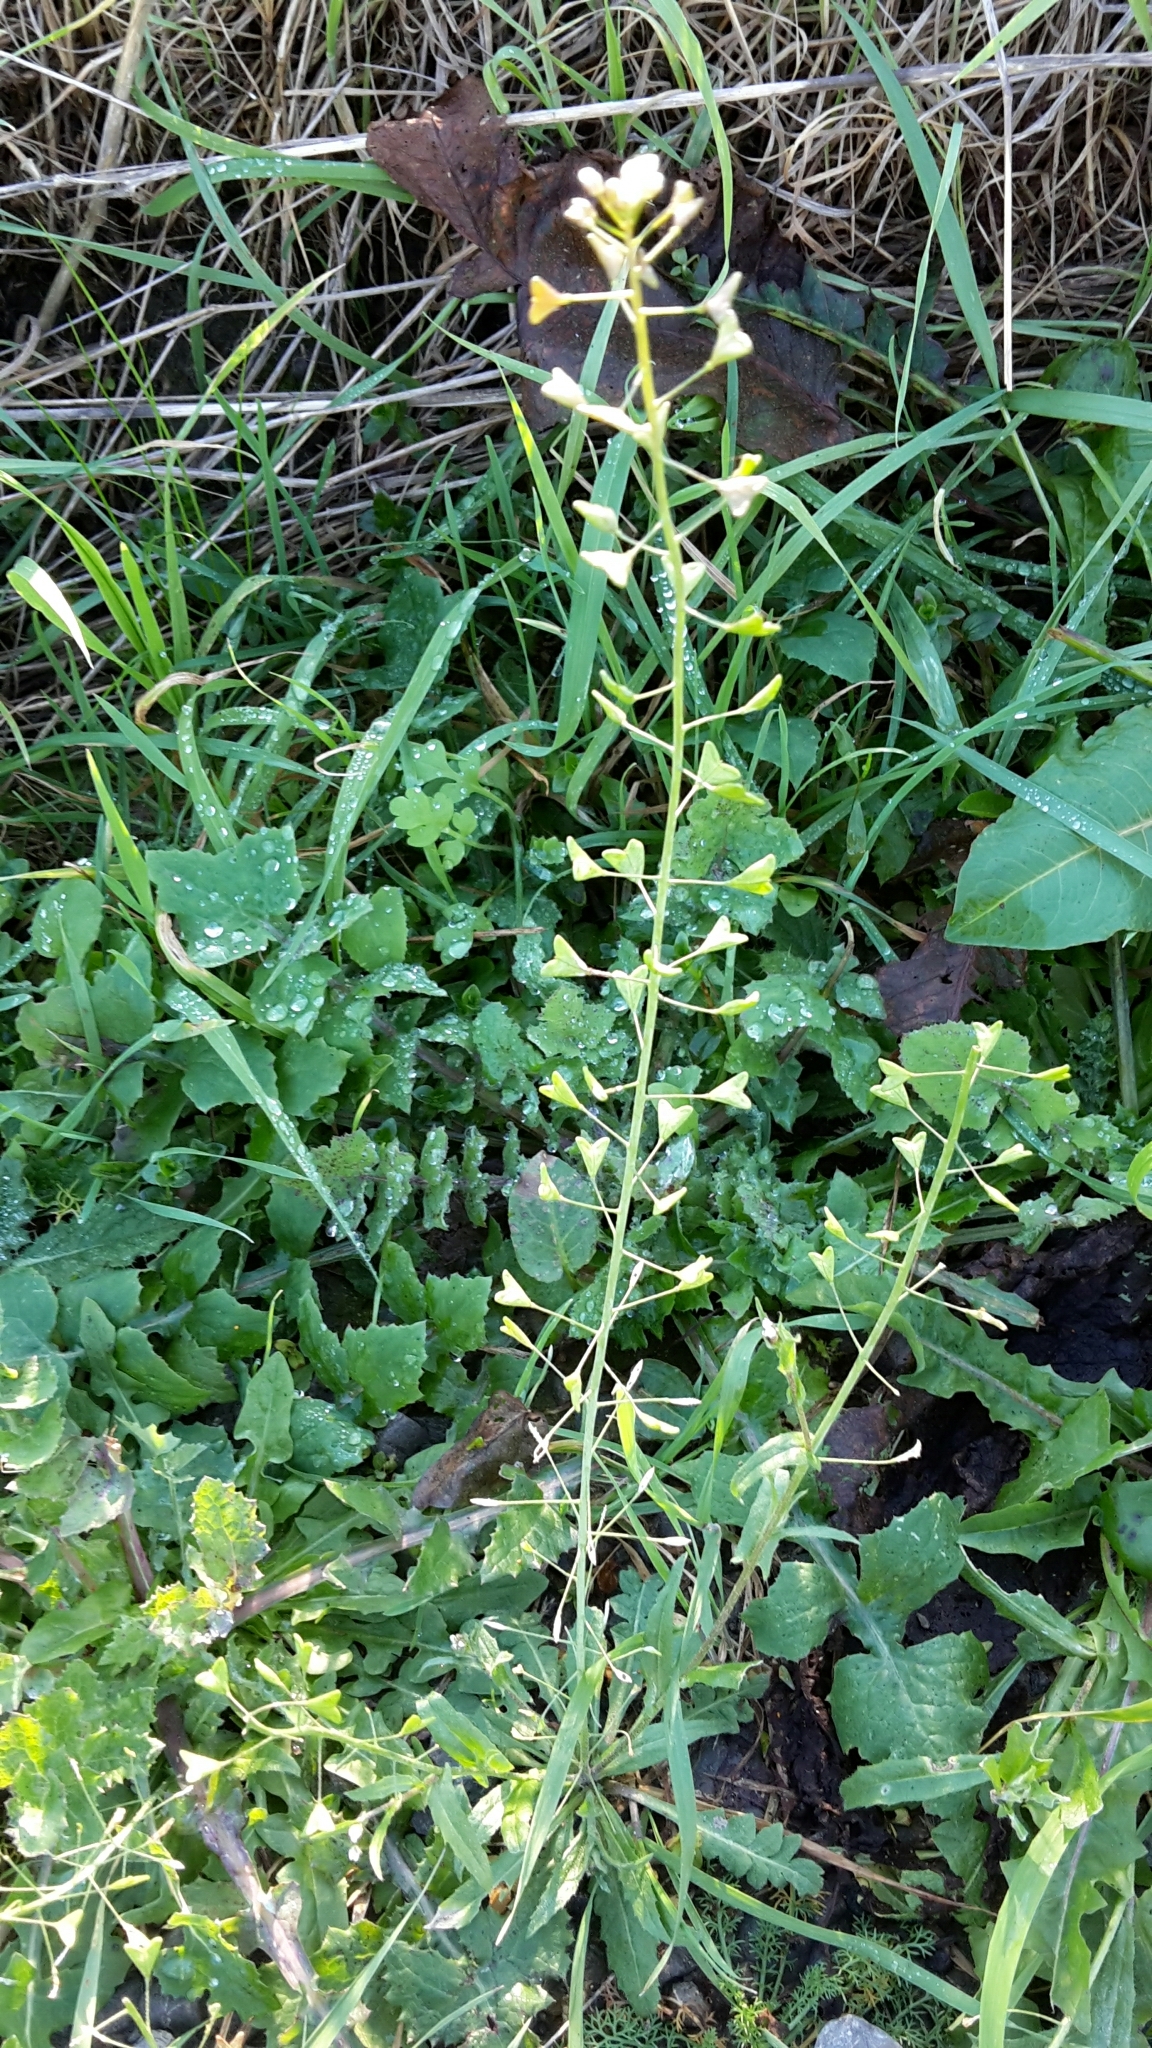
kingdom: Plantae
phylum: Tracheophyta
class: Magnoliopsida
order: Brassicales
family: Brassicaceae
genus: Capsella
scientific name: Capsella bursa-pastoris
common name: Shepherd's purse
